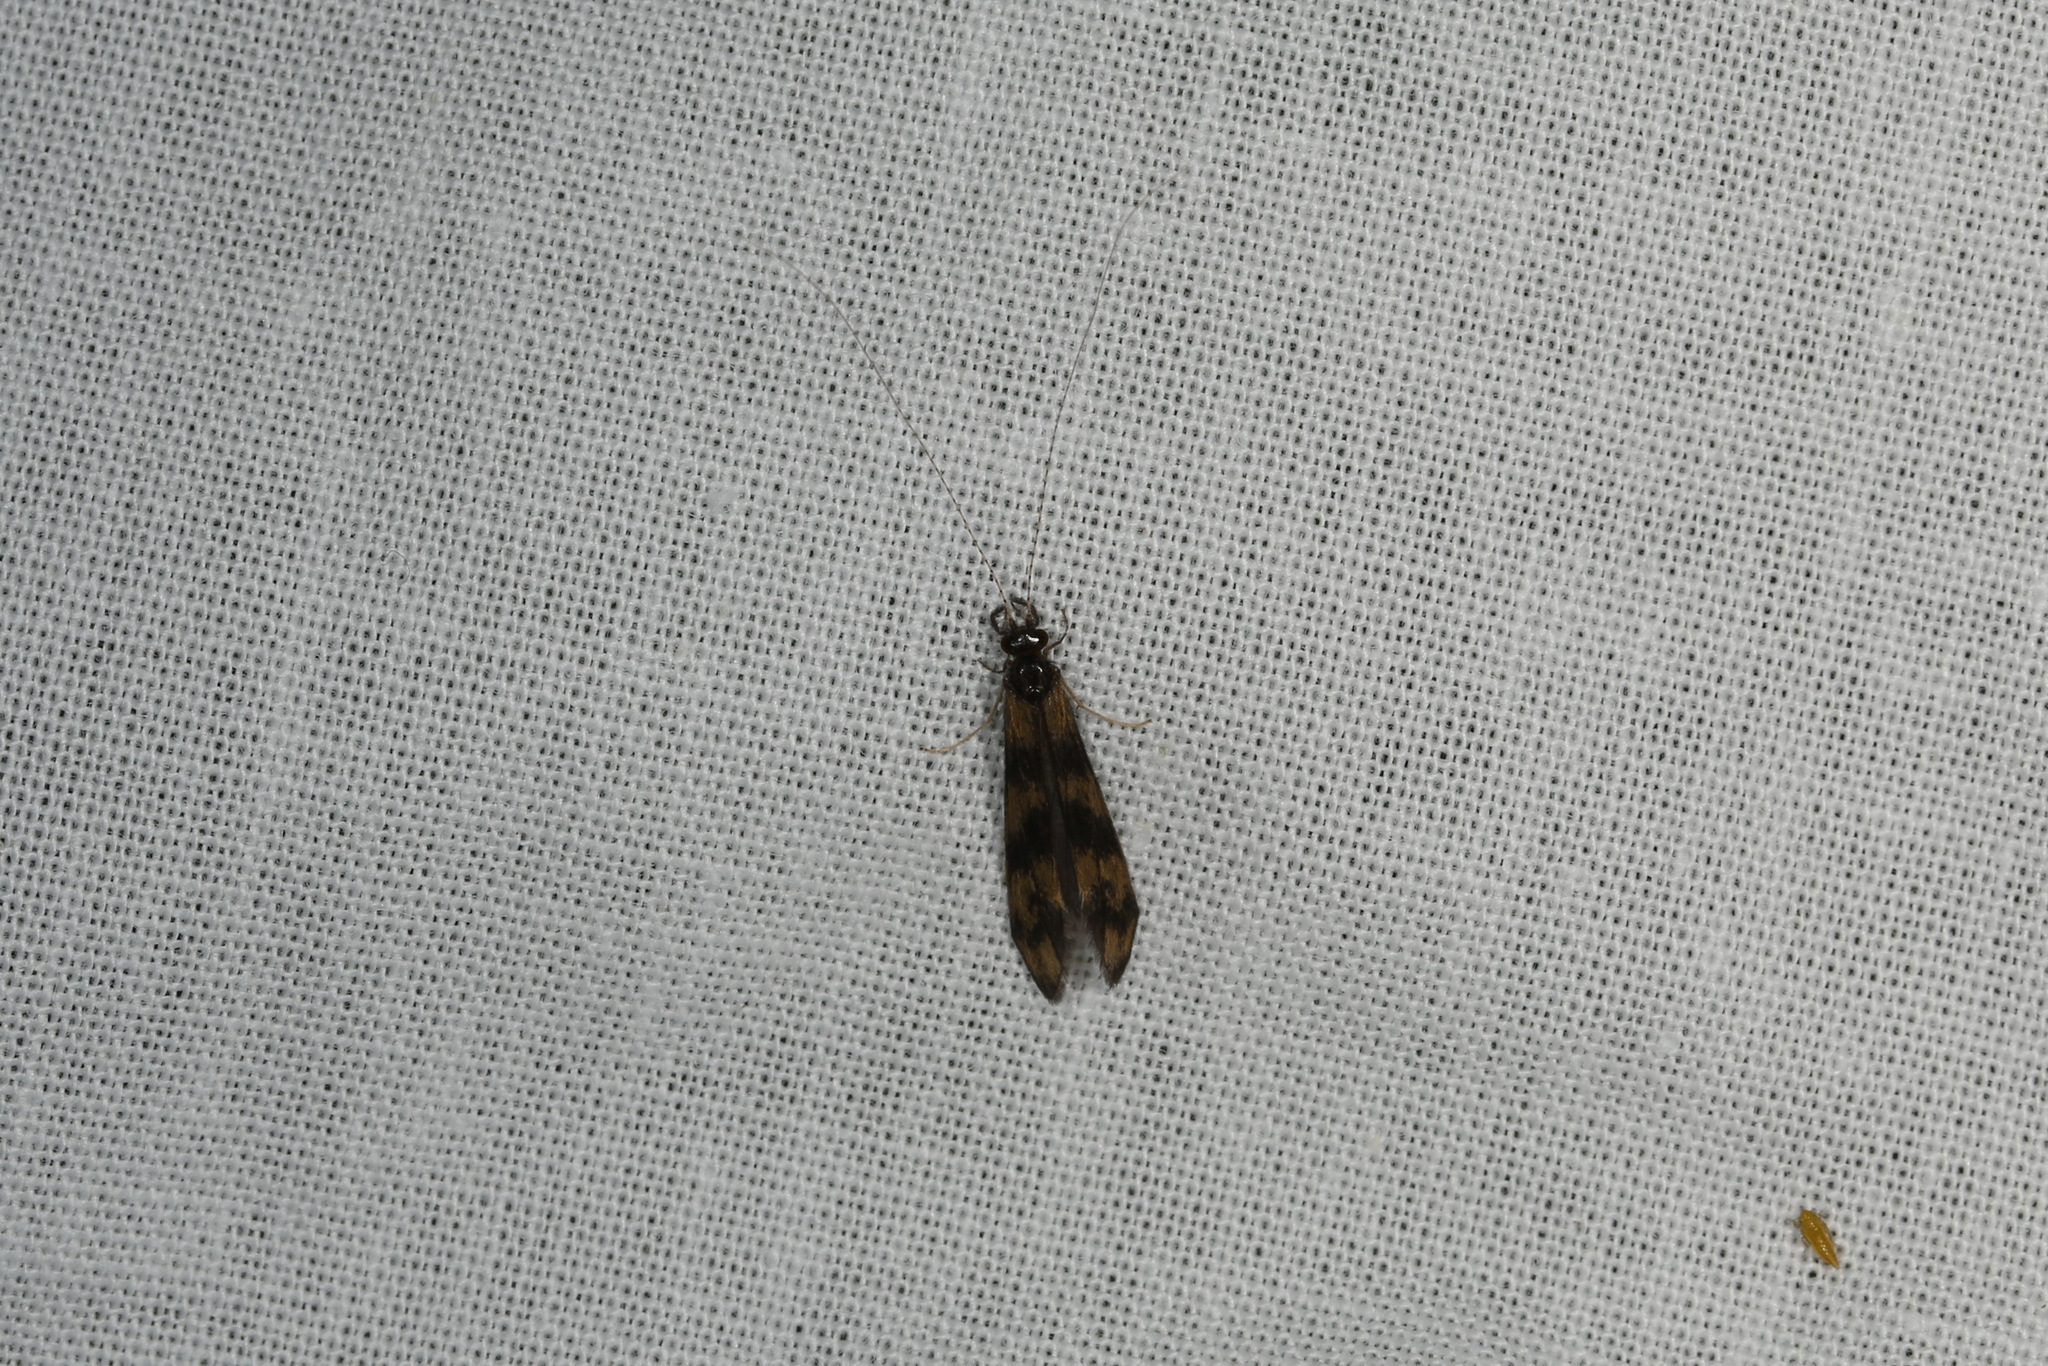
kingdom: Animalia
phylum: Arthropoda
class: Insecta
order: Trichoptera
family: Leptoceridae
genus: Mystacides
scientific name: Mystacides longicornis
